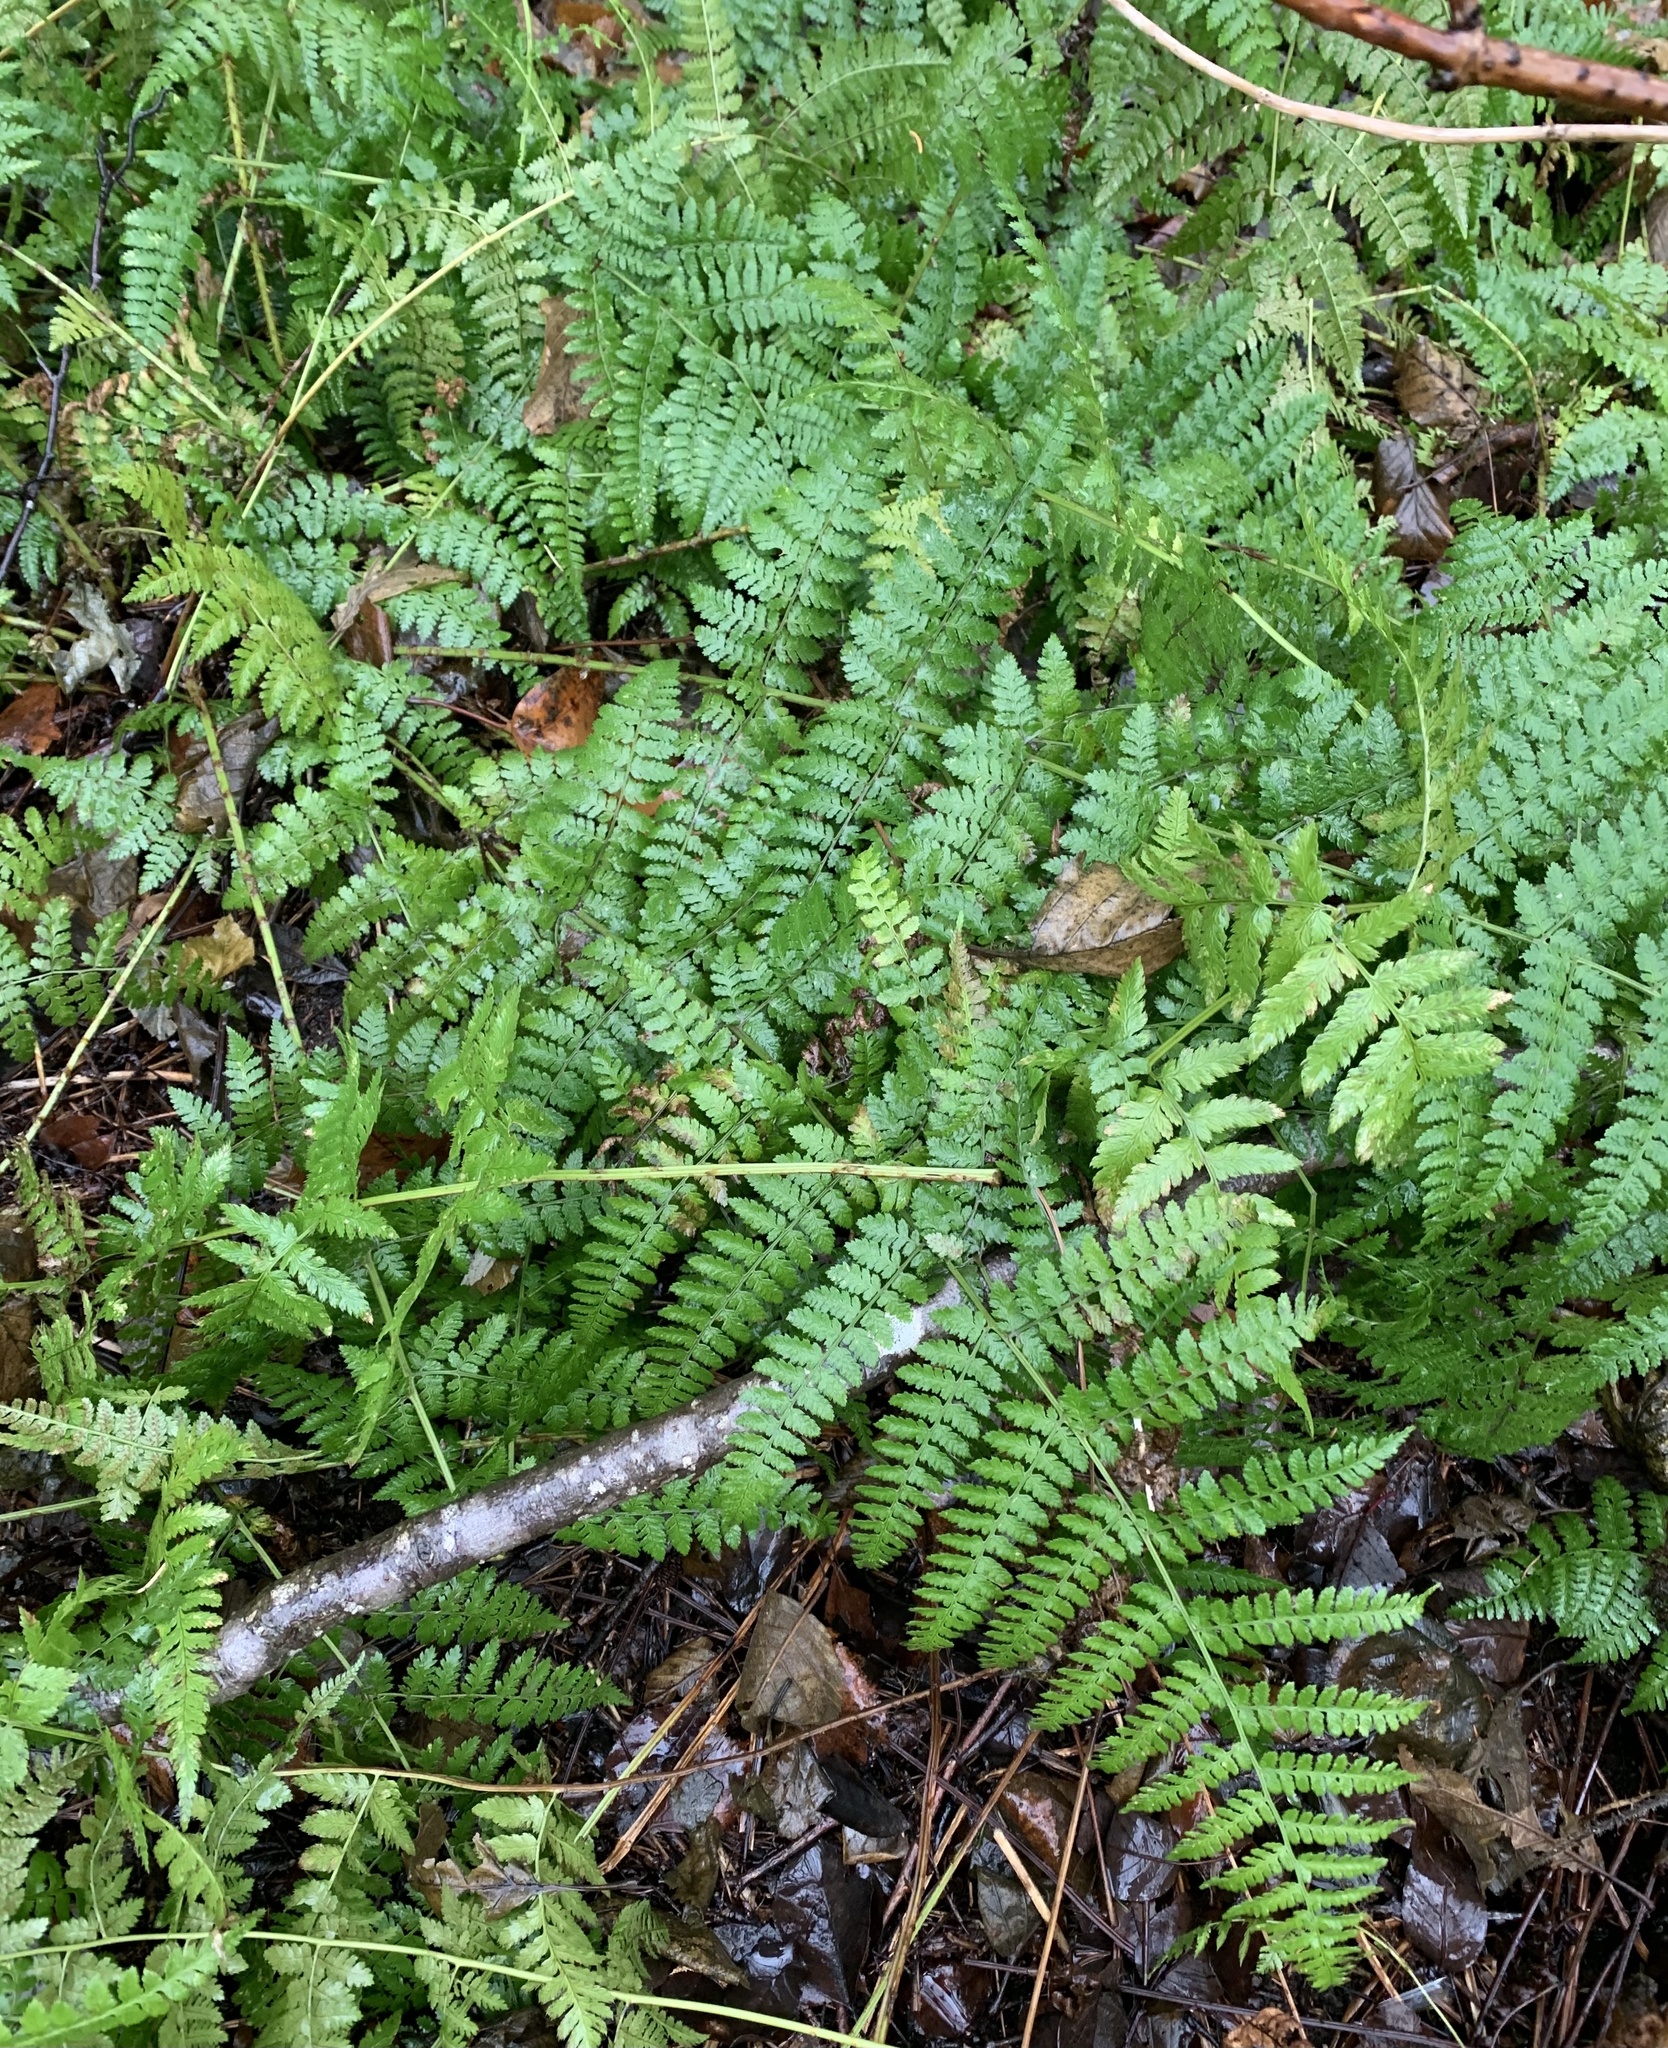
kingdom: Plantae
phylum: Tracheophyta
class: Polypodiopsida
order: Polypodiales
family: Dryopteridaceae
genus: Dryopteris
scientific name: Dryopteris intermedia
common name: Evergreen wood fern
